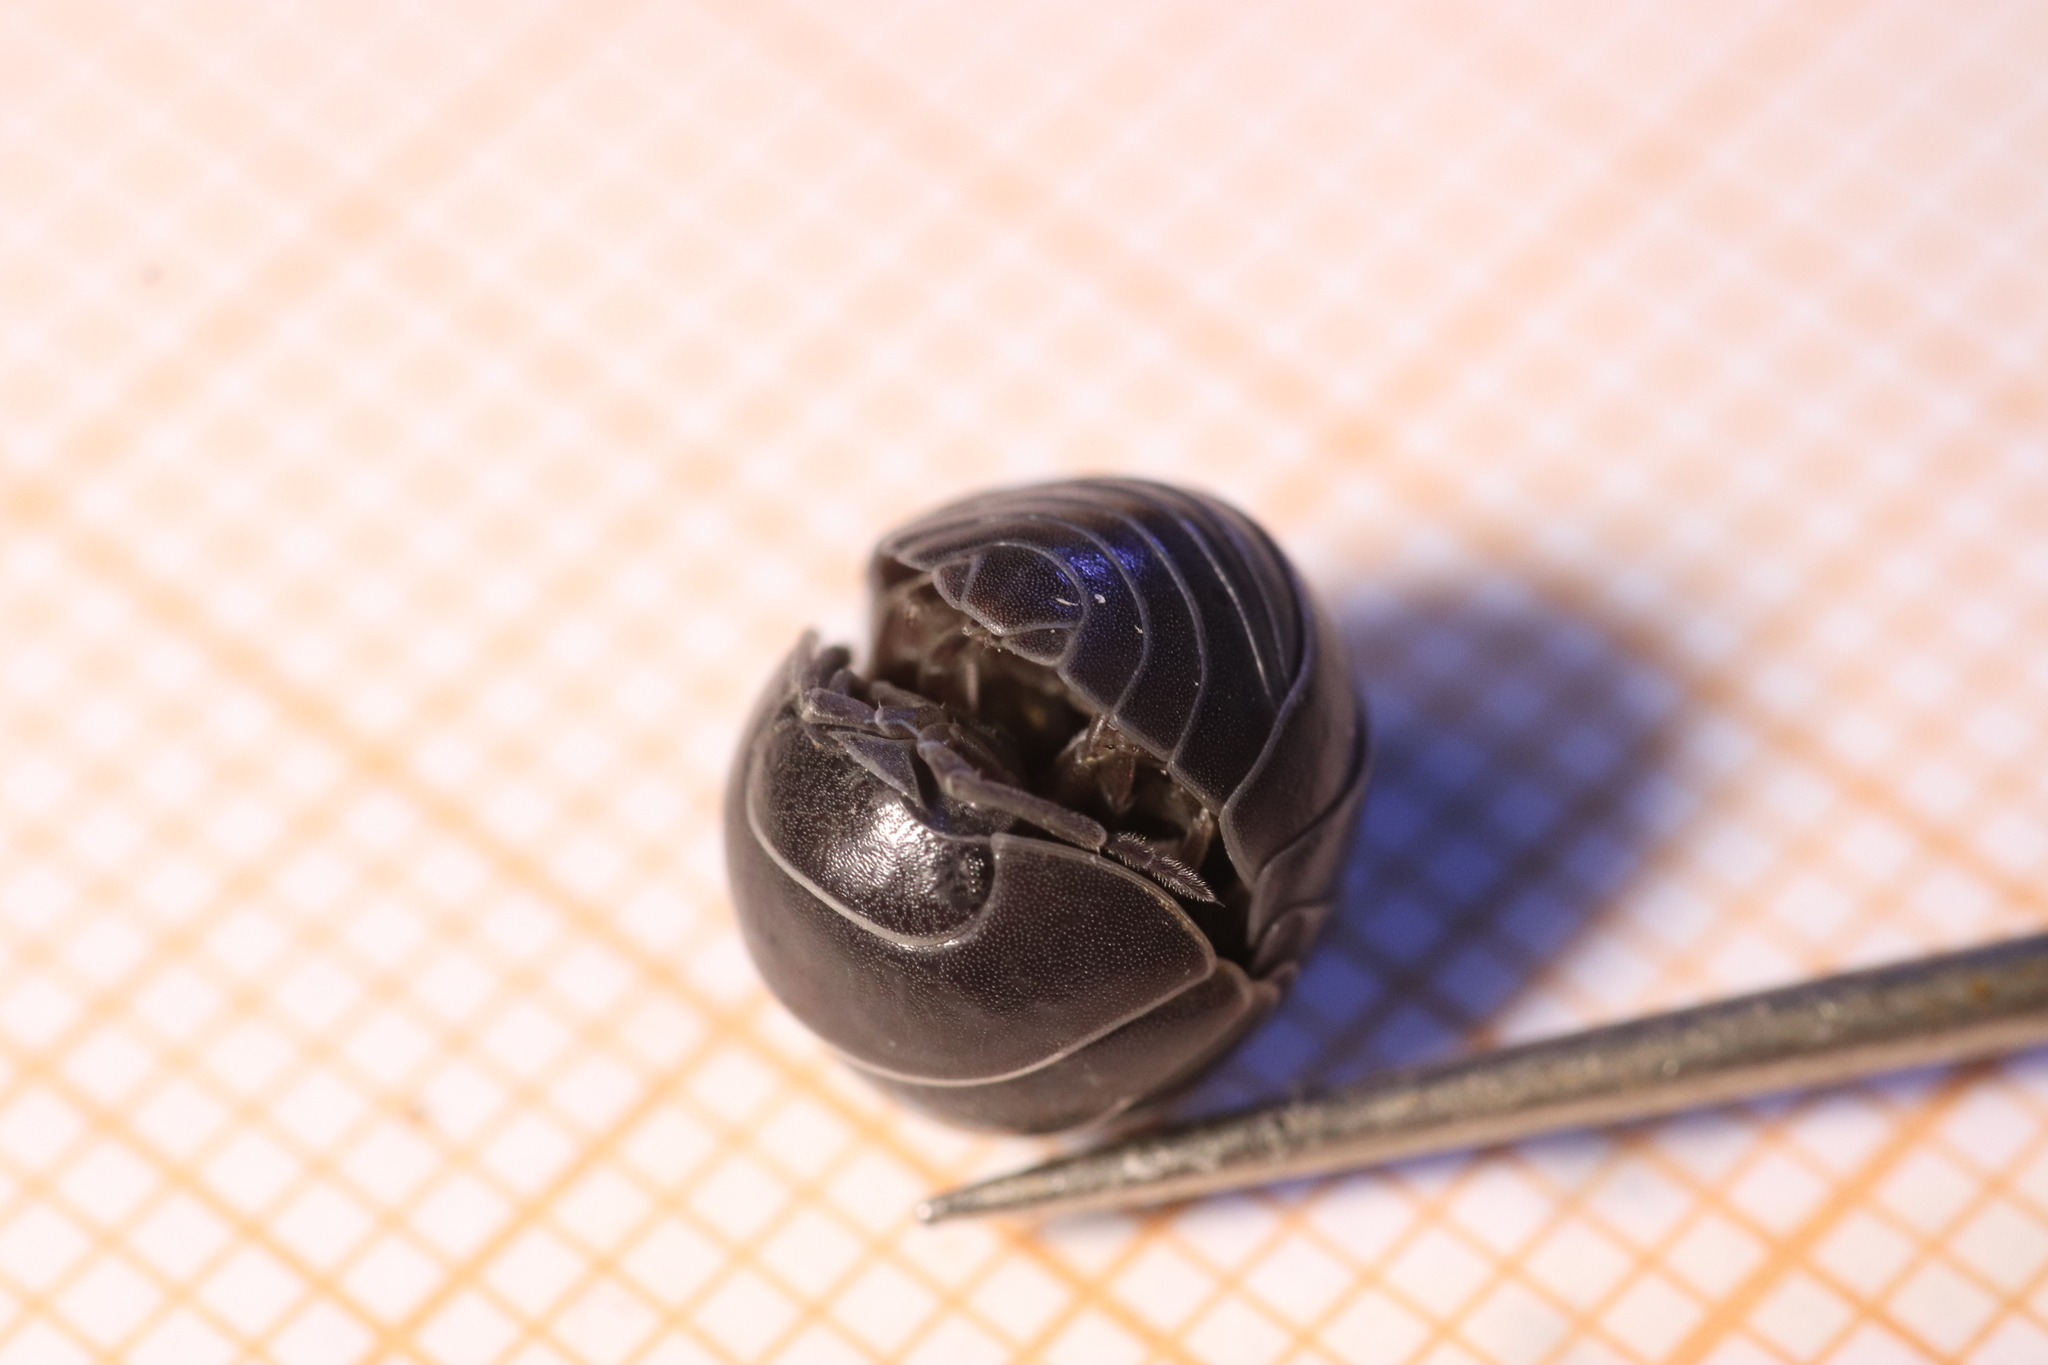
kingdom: Animalia
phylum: Arthropoda
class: Malacostraca
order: Isopoda
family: Armadillidiidae
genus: Armadillidium
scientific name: Armadillidium vulgare
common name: Common pill woodlouse
